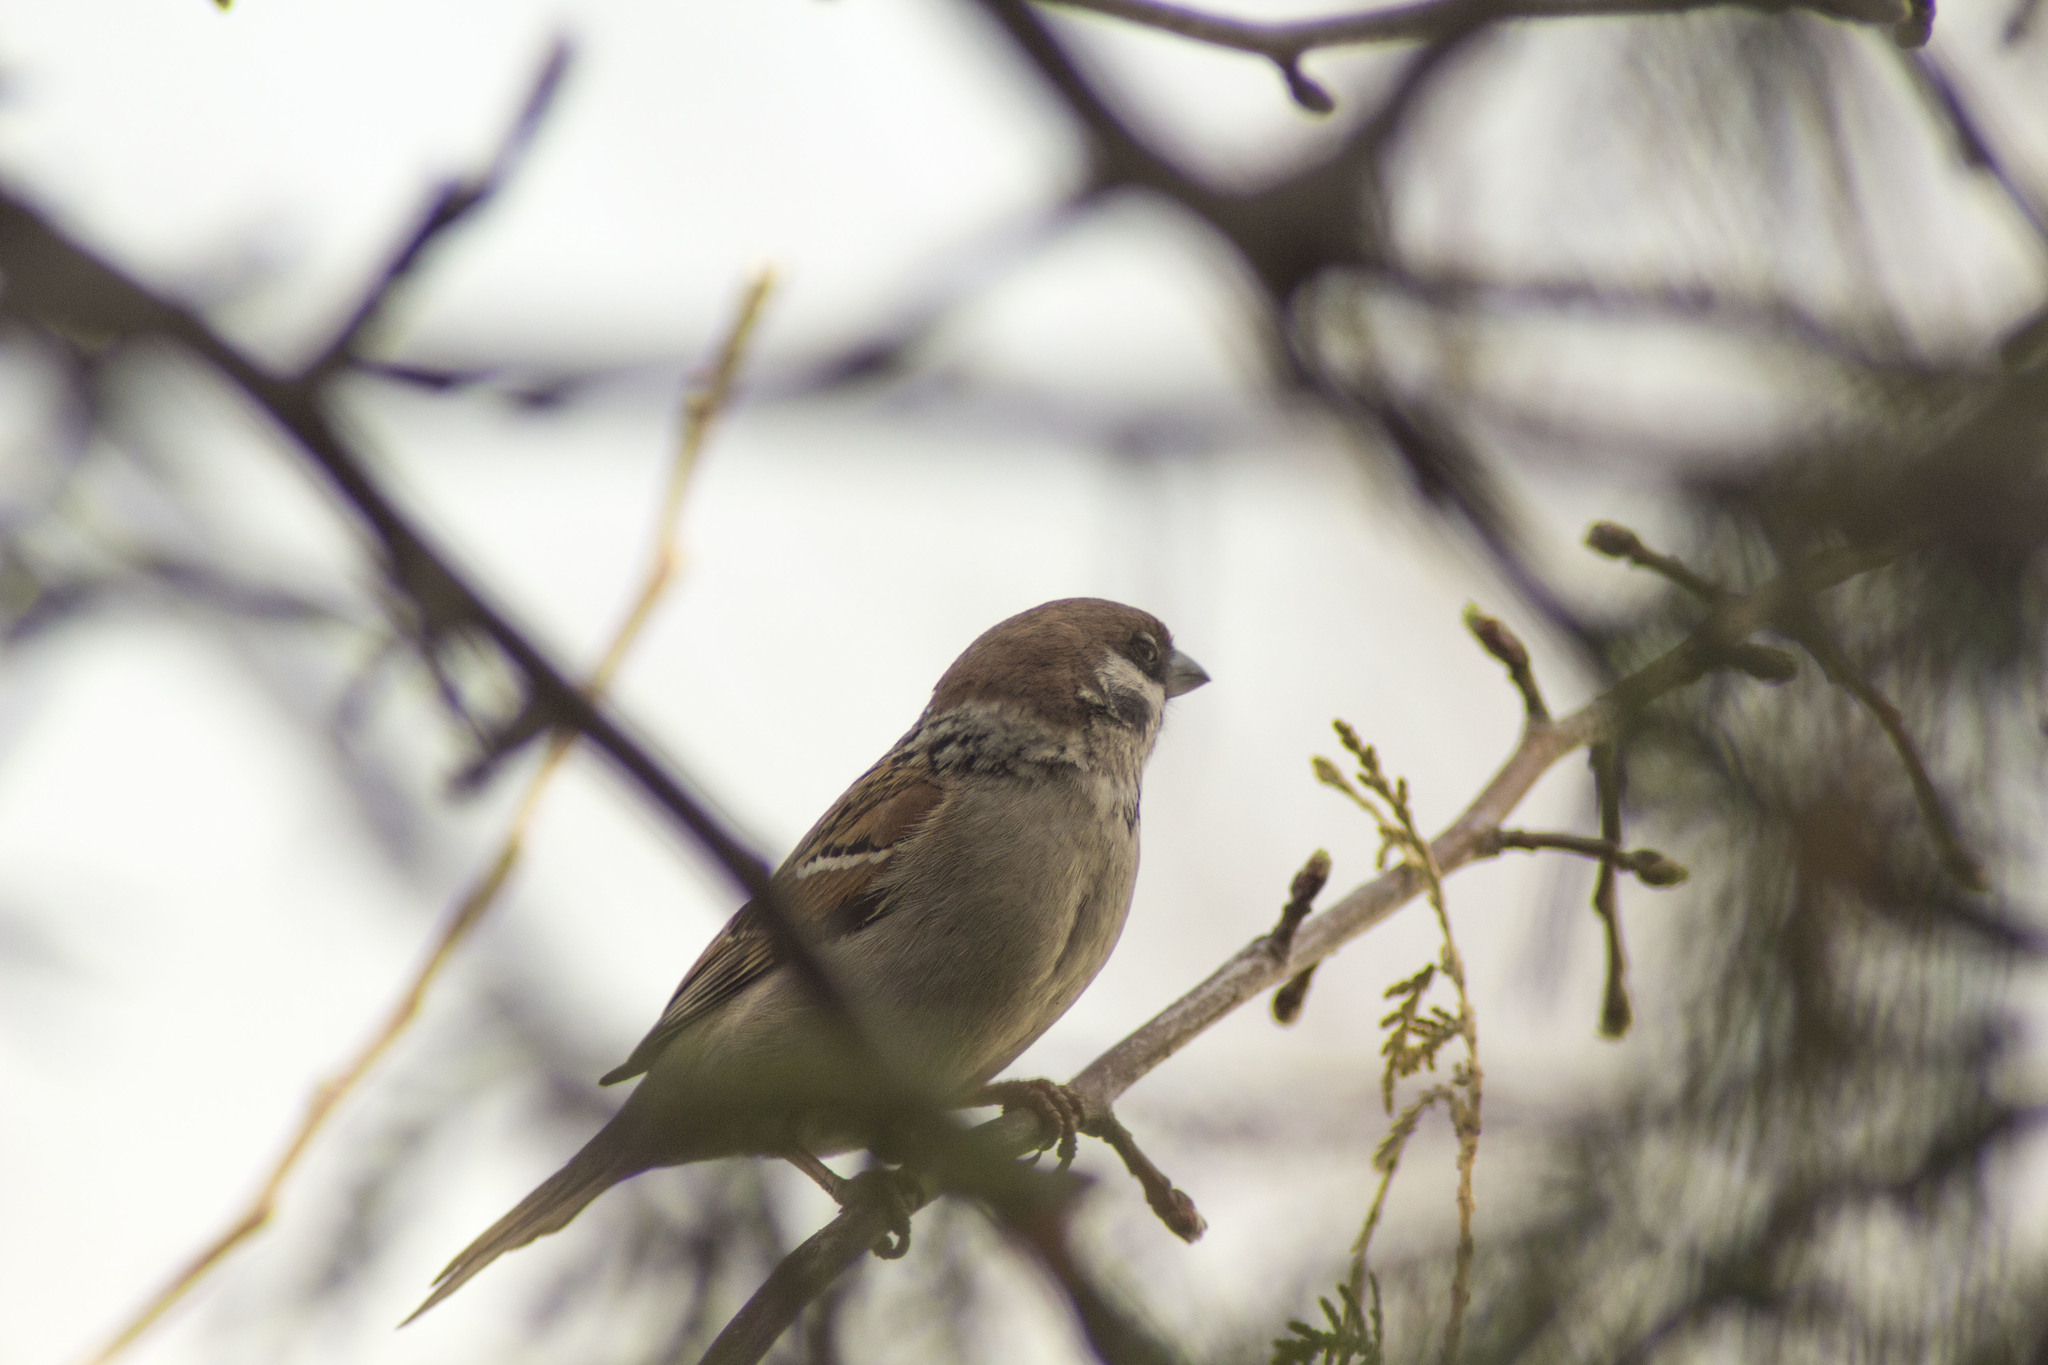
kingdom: Animalia
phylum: Chordata
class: Aves
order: Passeriformes
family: Passeridae
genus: Passer
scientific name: Passer montanus
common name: Eurasian tree sparrow
